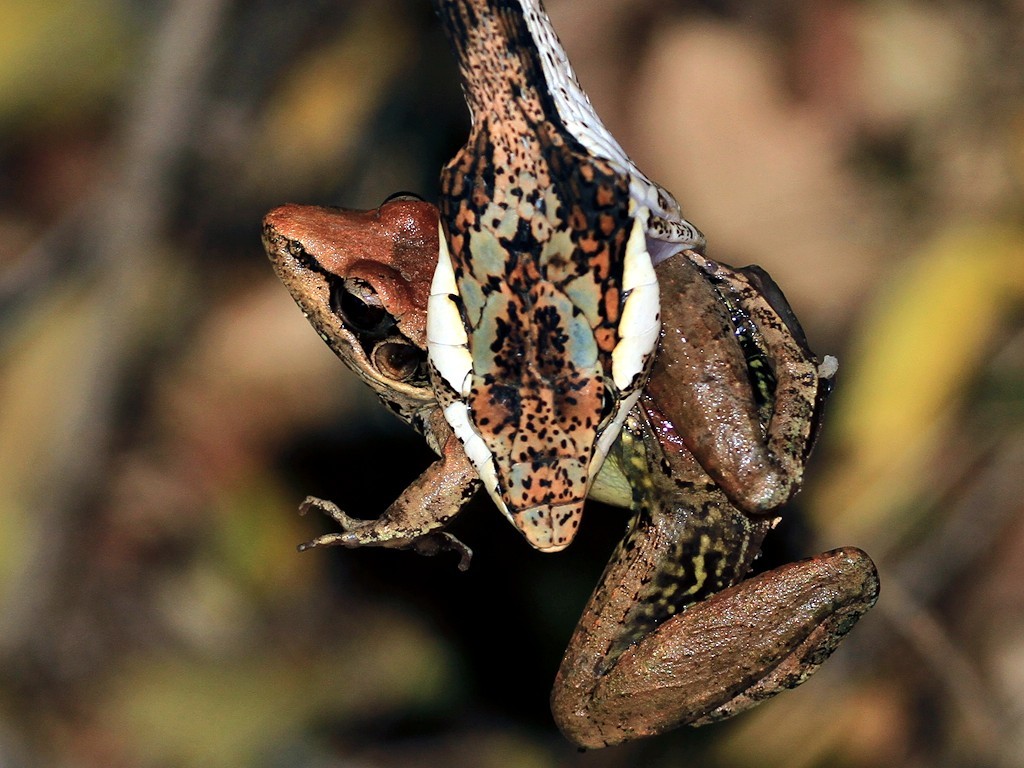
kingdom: Animalia
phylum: Chordata
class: Amphibia
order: Anura
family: Ptychadenidae
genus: Ptychadena
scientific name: Ptychadena anchietae
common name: Anchieta's ridged frog
